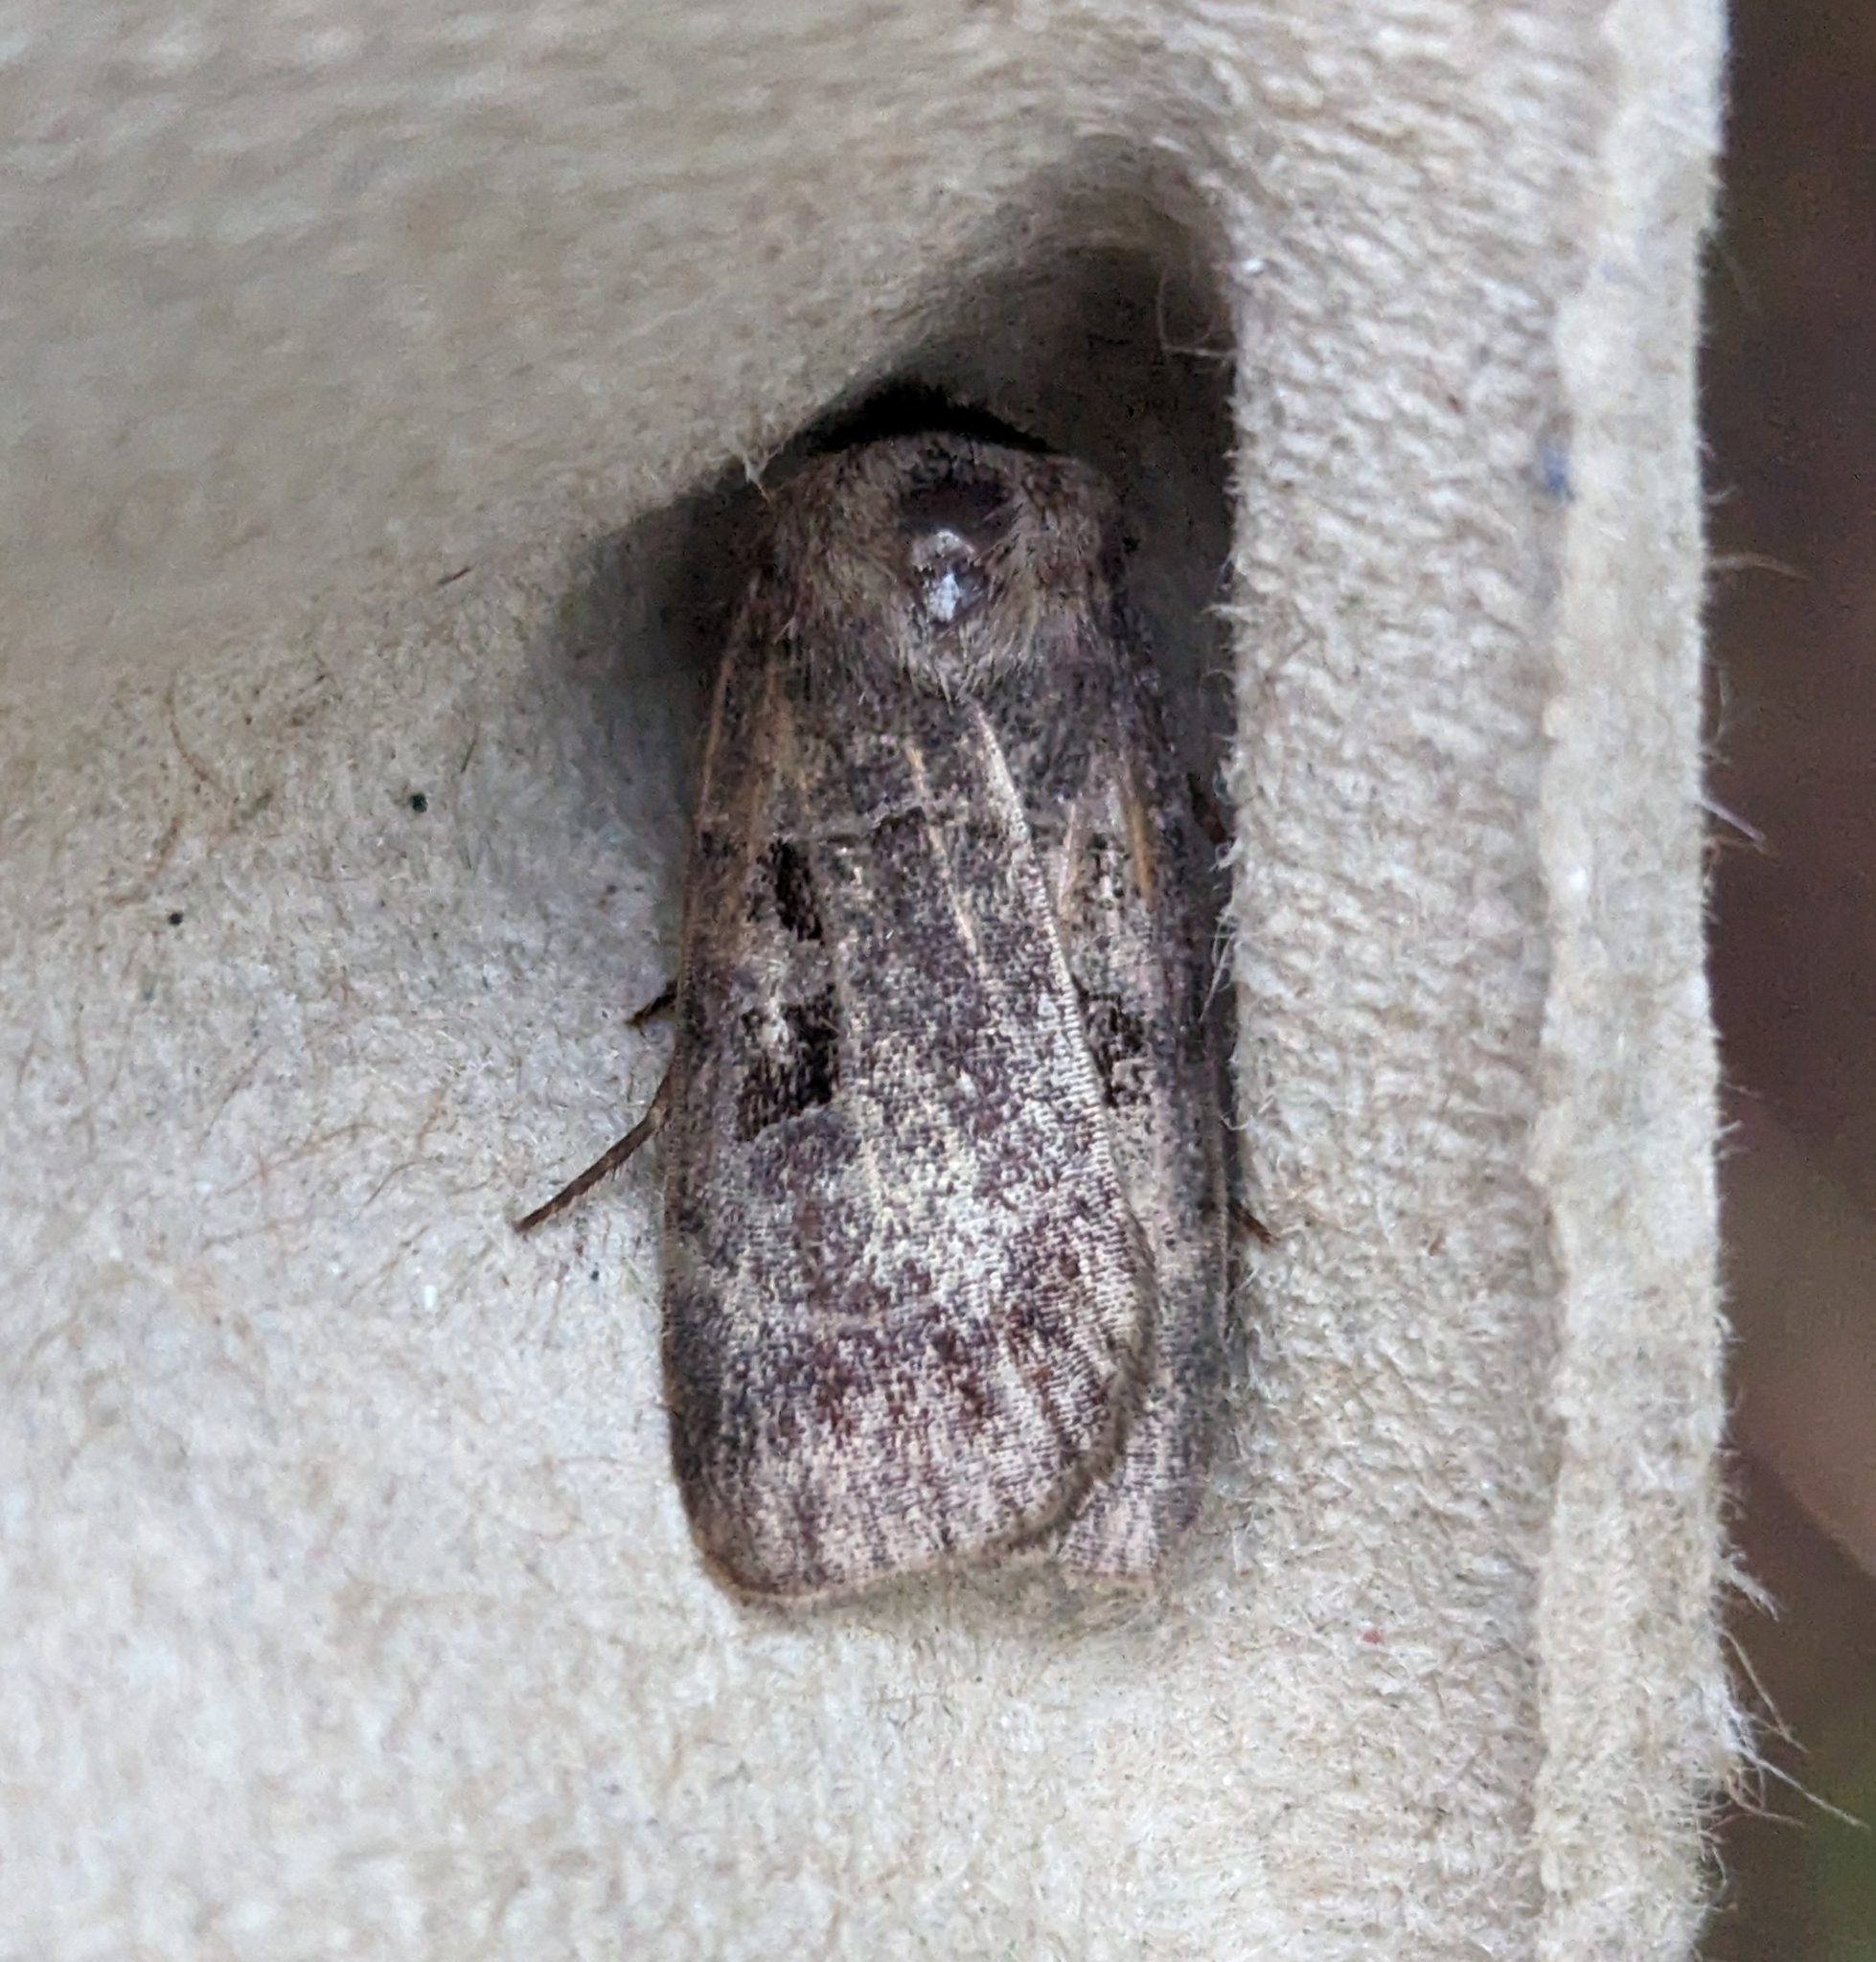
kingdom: Animalia
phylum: Arthropoda
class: Insecta
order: Lepidoptera
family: Noctuidae
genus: Agnorisma
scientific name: Agnorisma bugrai
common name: Collared dart
